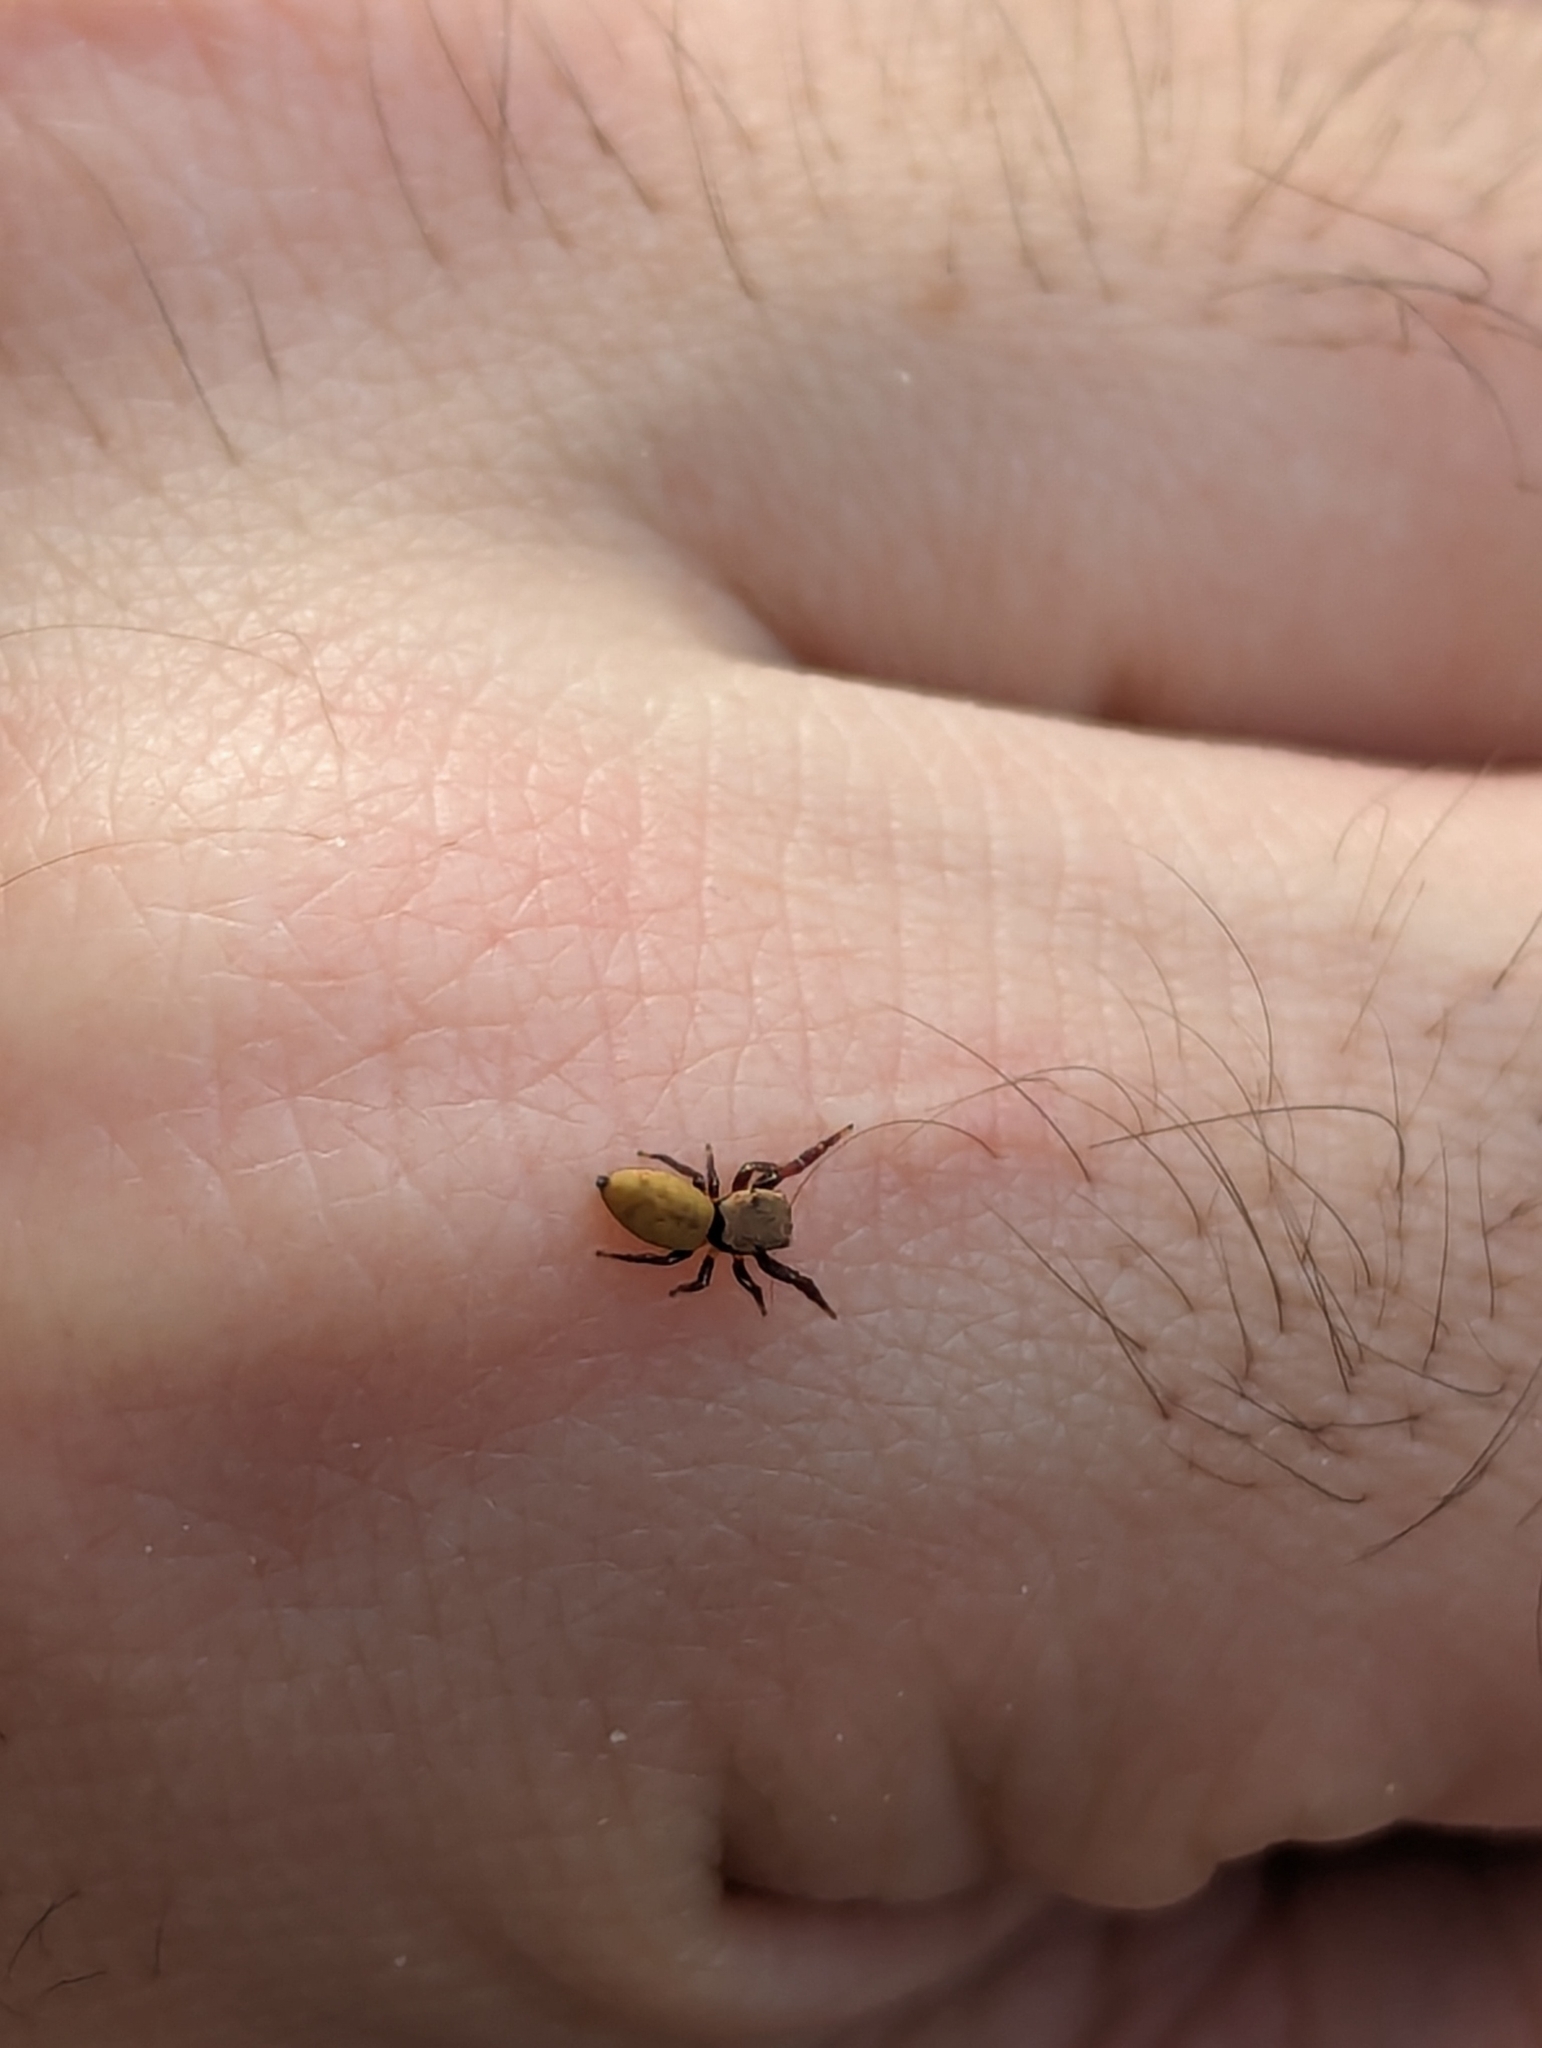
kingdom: Animalia
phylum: Arthropoda
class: Arachnida
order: Araneae
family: Salticidae
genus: Beata
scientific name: Beata wickhami
